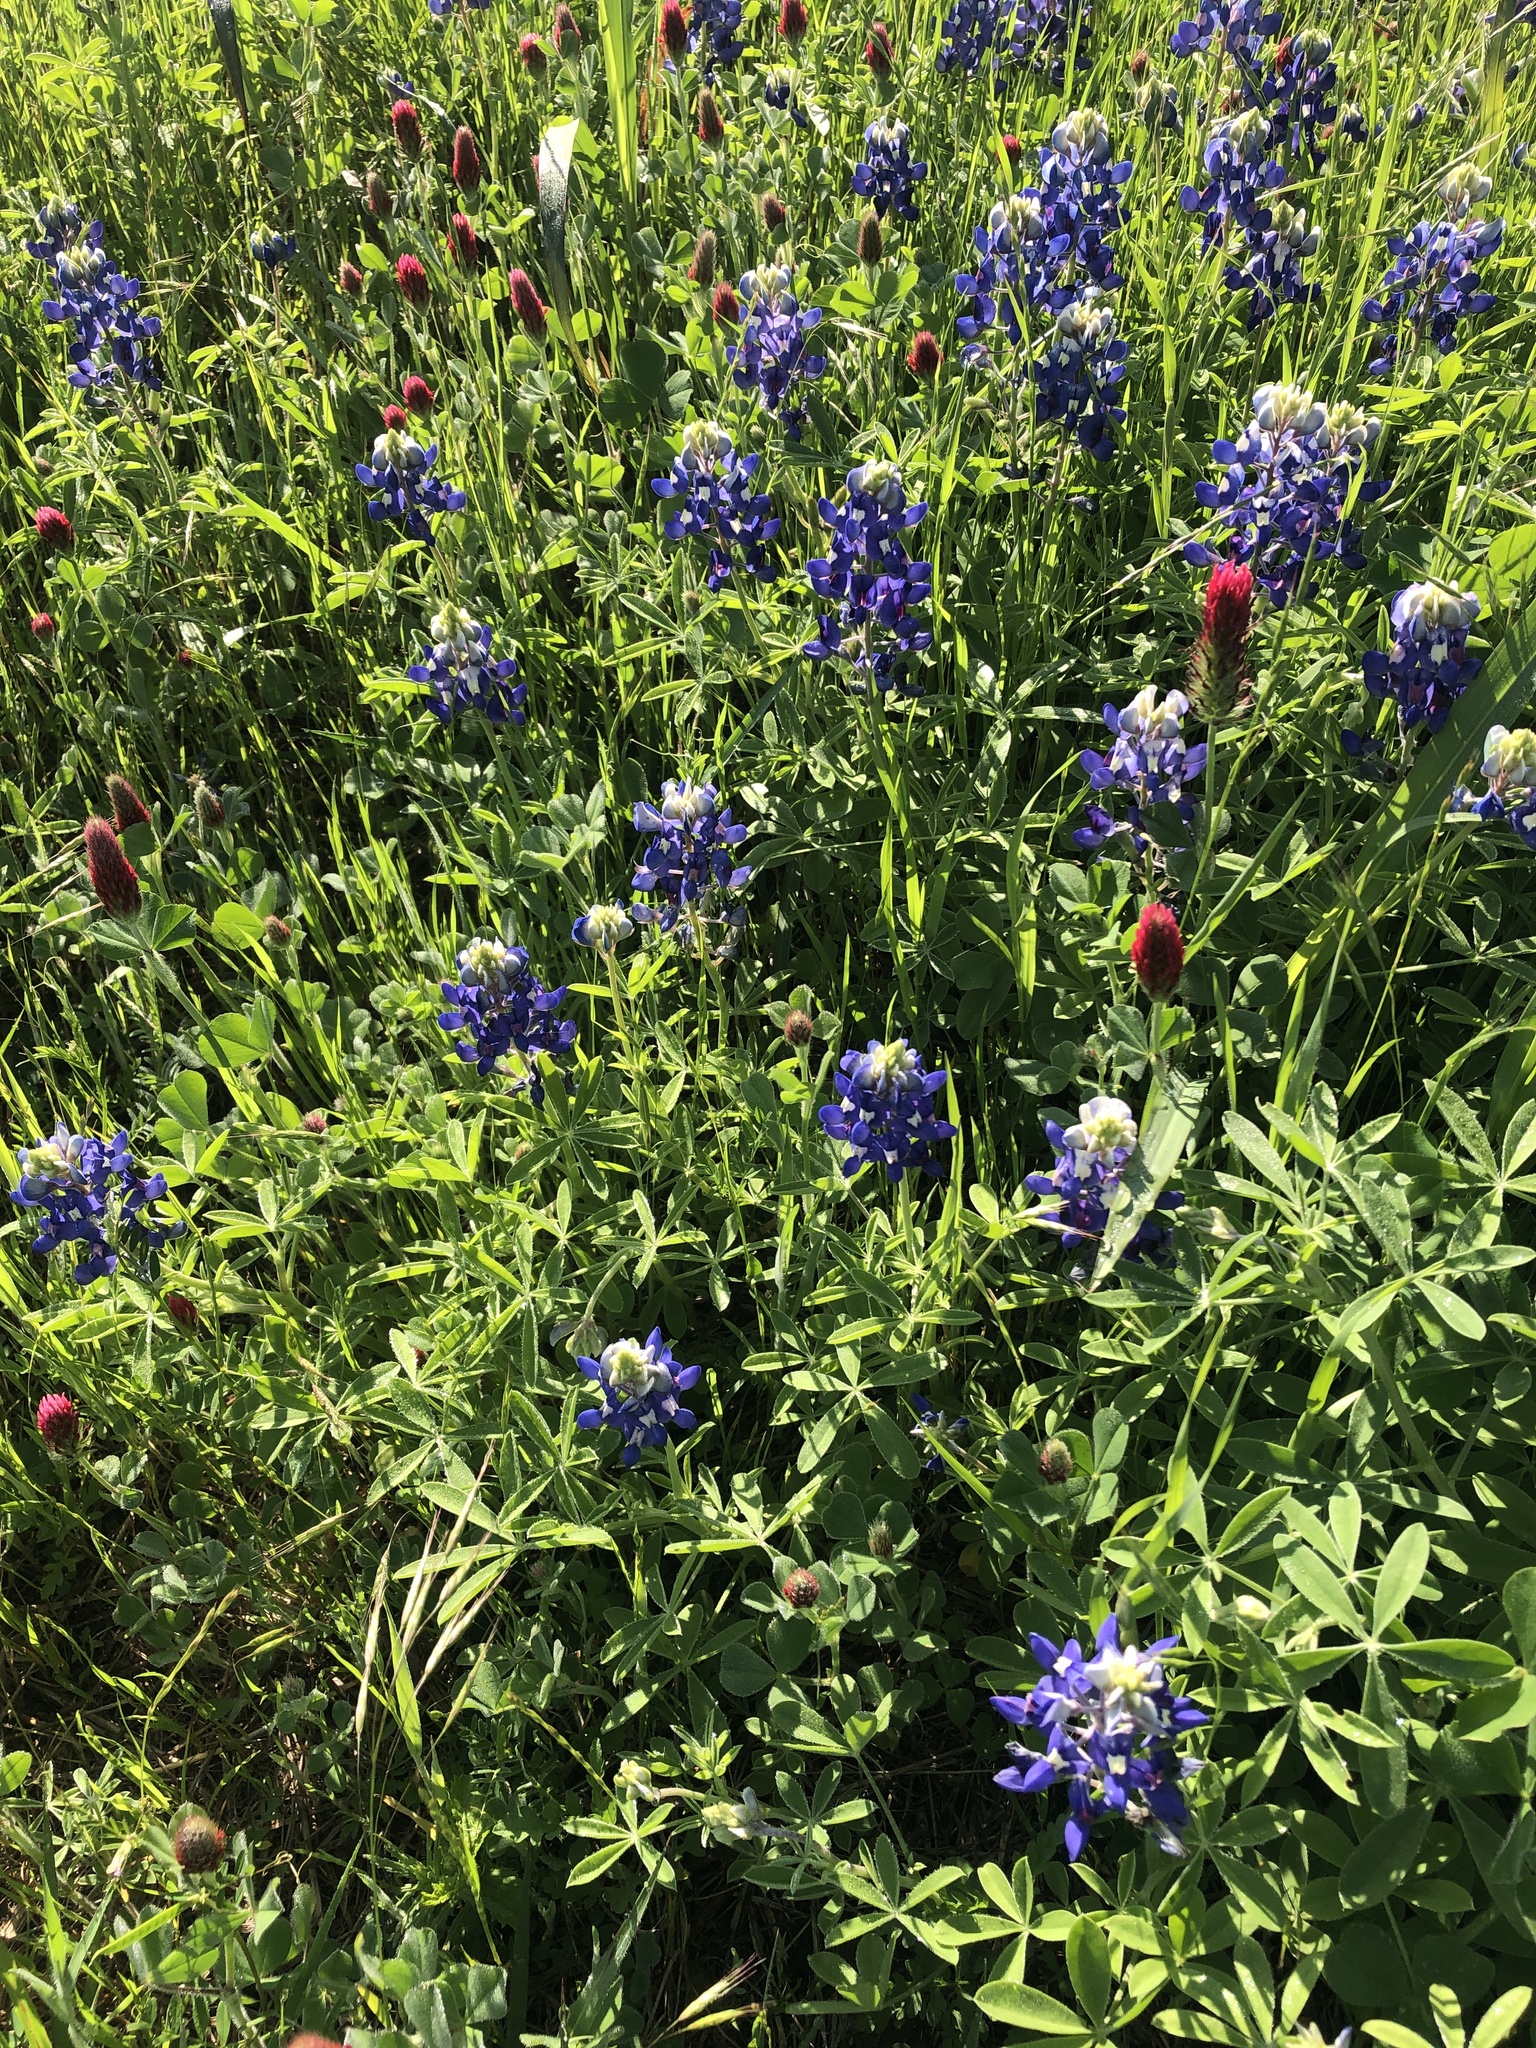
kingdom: Plantae
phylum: Tracheophyta
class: Magnoliopsida
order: Fabales
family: Fabaceae
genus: Lupinus
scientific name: Lupinus texensis
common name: Texas bluebonnet
